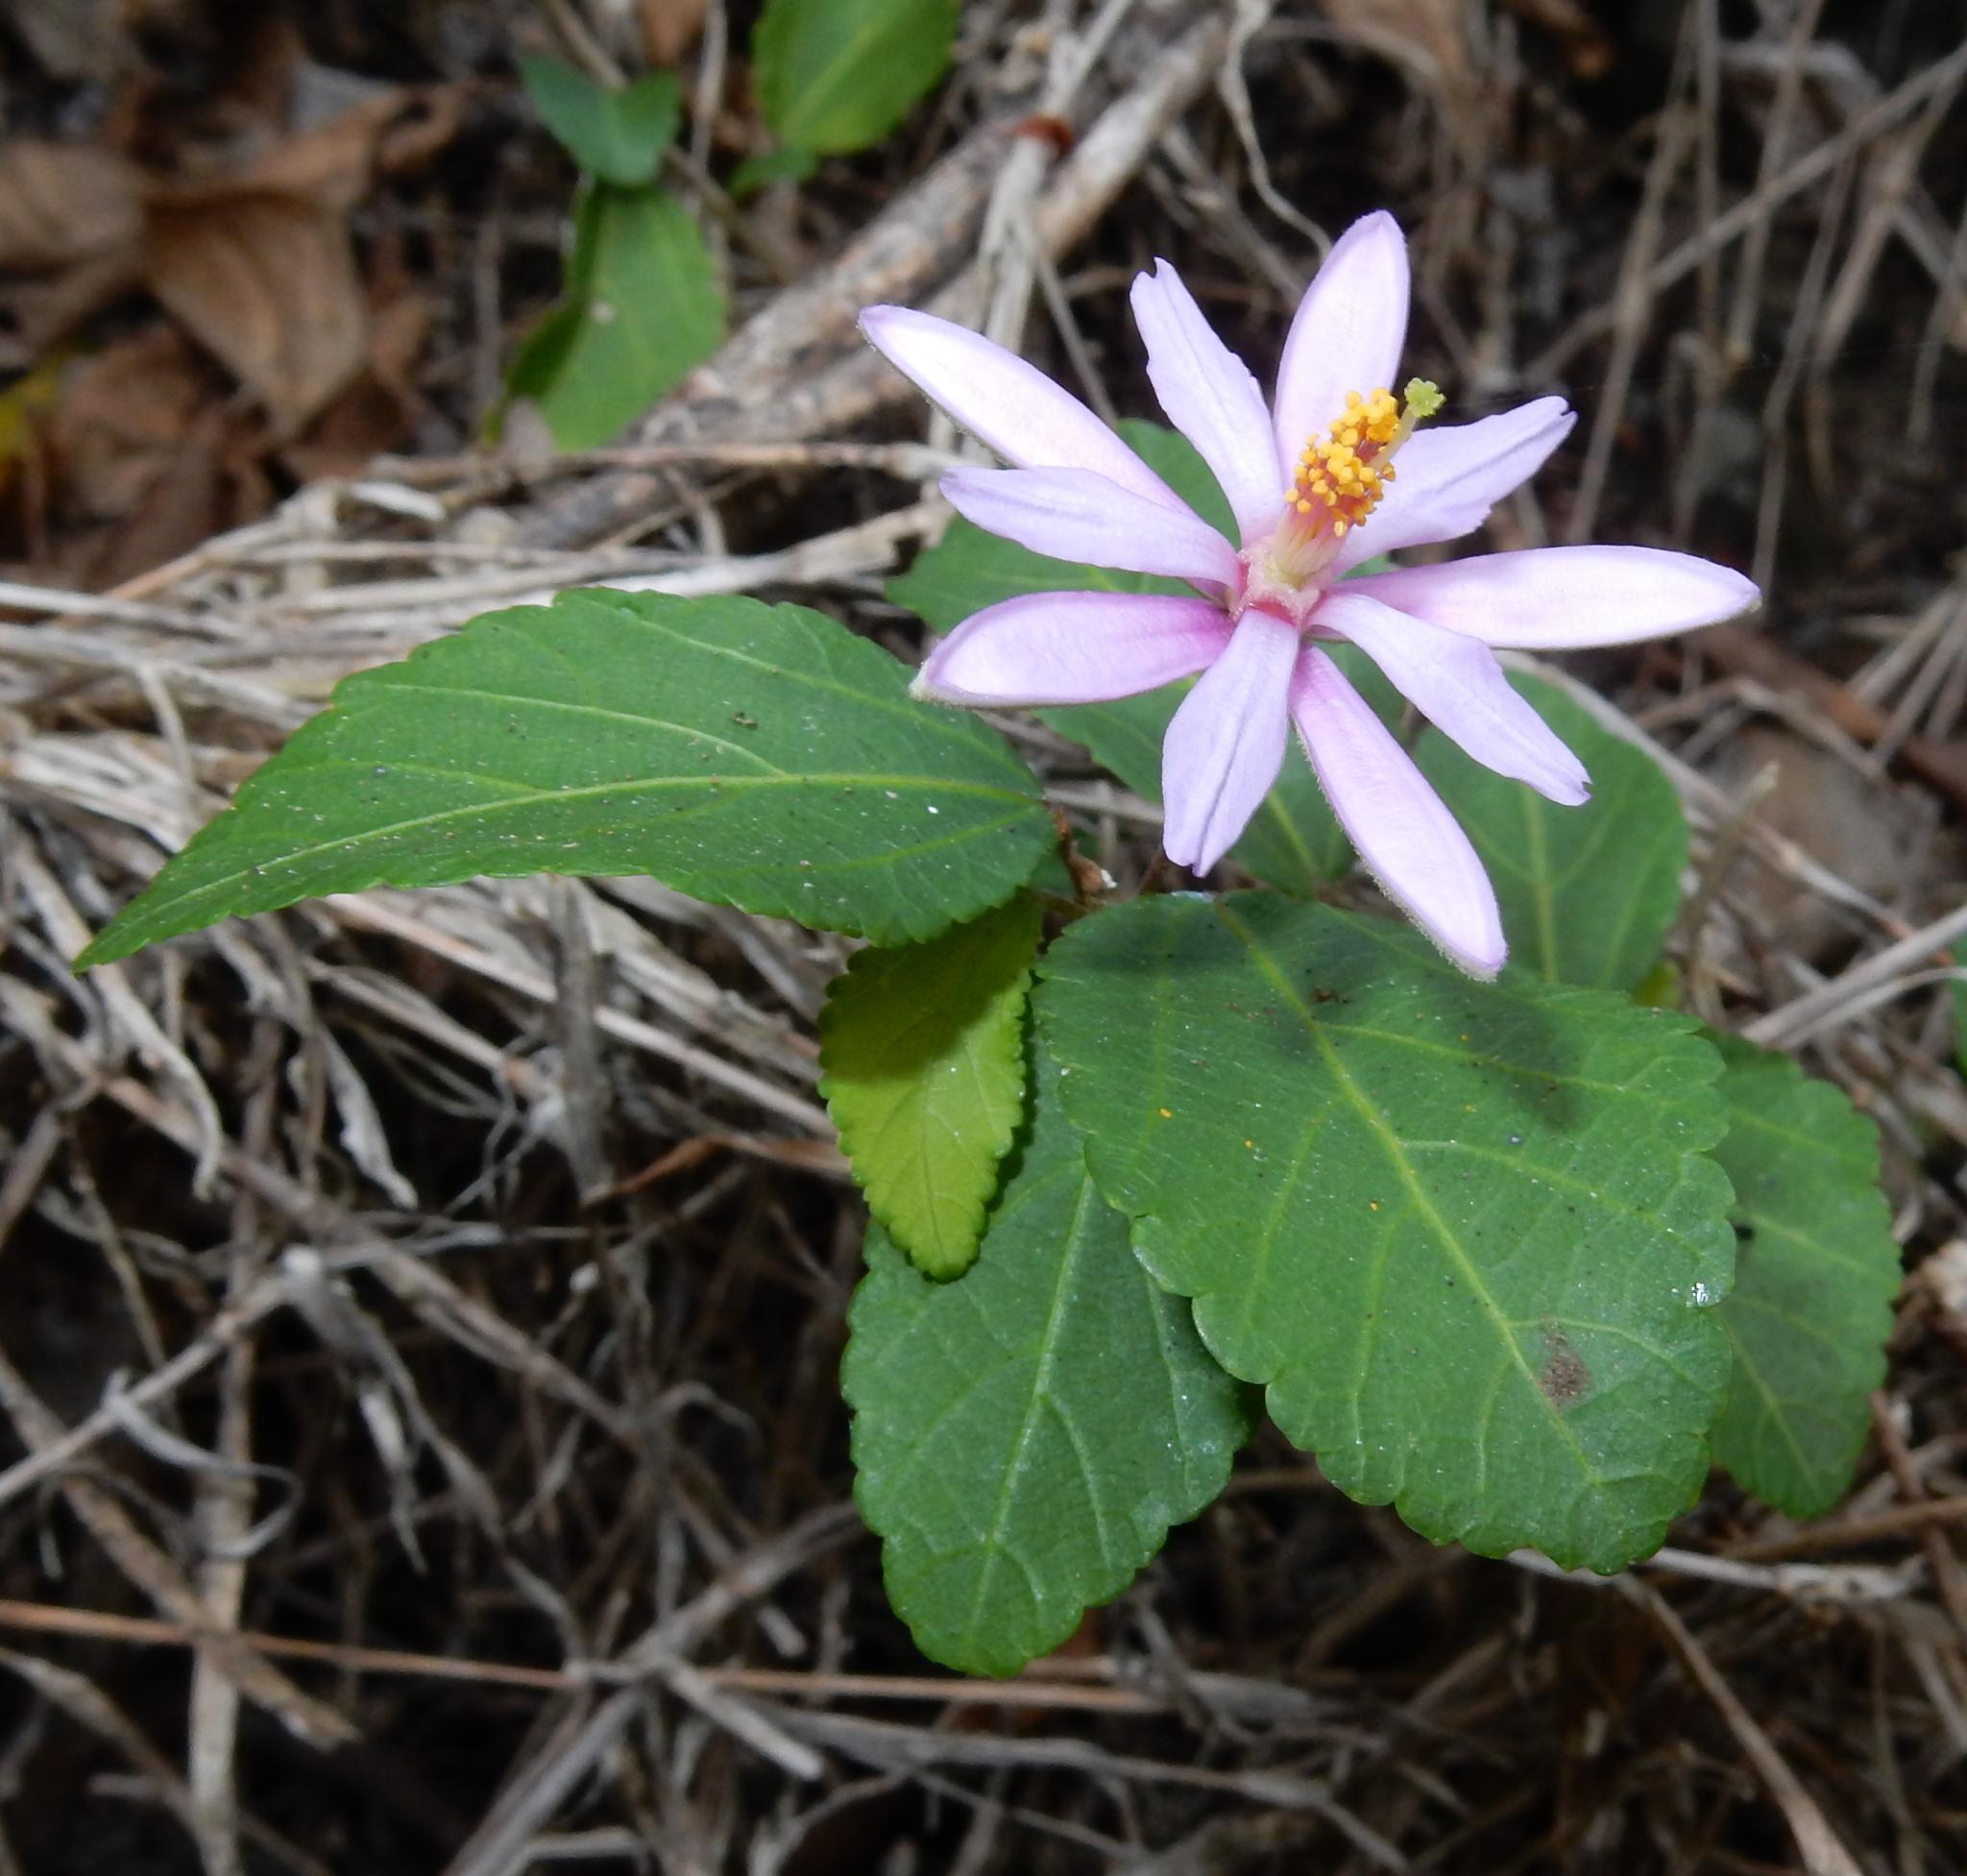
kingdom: Plantae
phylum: Tracheophyta
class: Magnoliopsida
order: Malvales
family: Malvaceae
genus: Grewia
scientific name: Grewia occidentalis
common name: Crossberry
